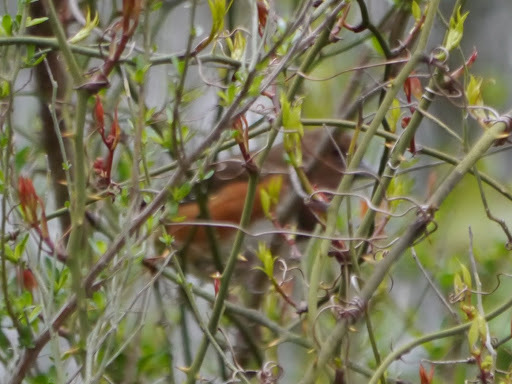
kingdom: Animalia
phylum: Chordata
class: Aves
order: Passeriformes
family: Passerellidae
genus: Pipilo
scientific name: Pipilo erythrophthalmus
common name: Eastern towhee
